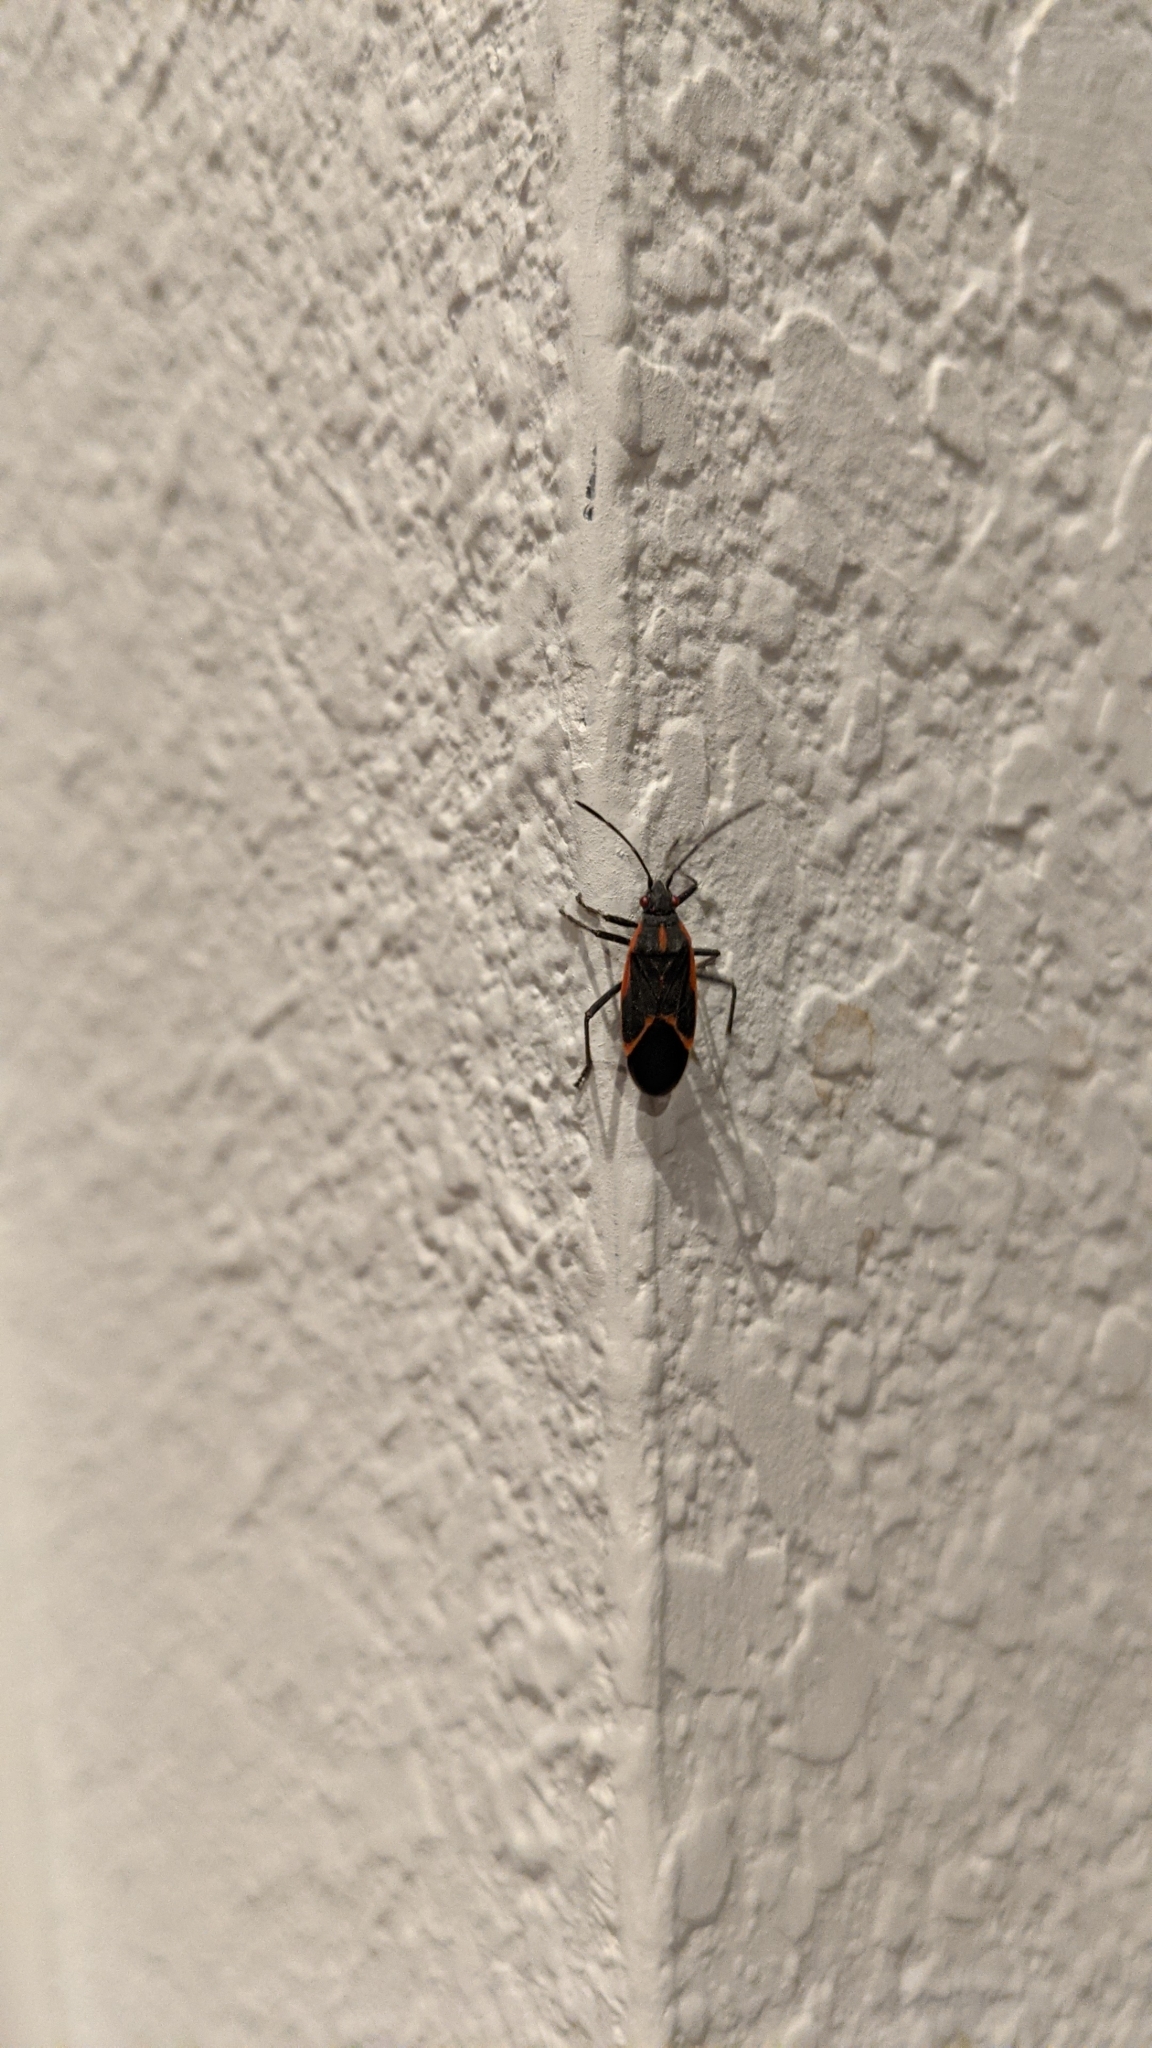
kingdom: Animalia
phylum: Arthropoda
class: Insecta
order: Hemiptera
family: Rhopalidae
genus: Boisea
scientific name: Boisea trivittata
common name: Boxelder bug
